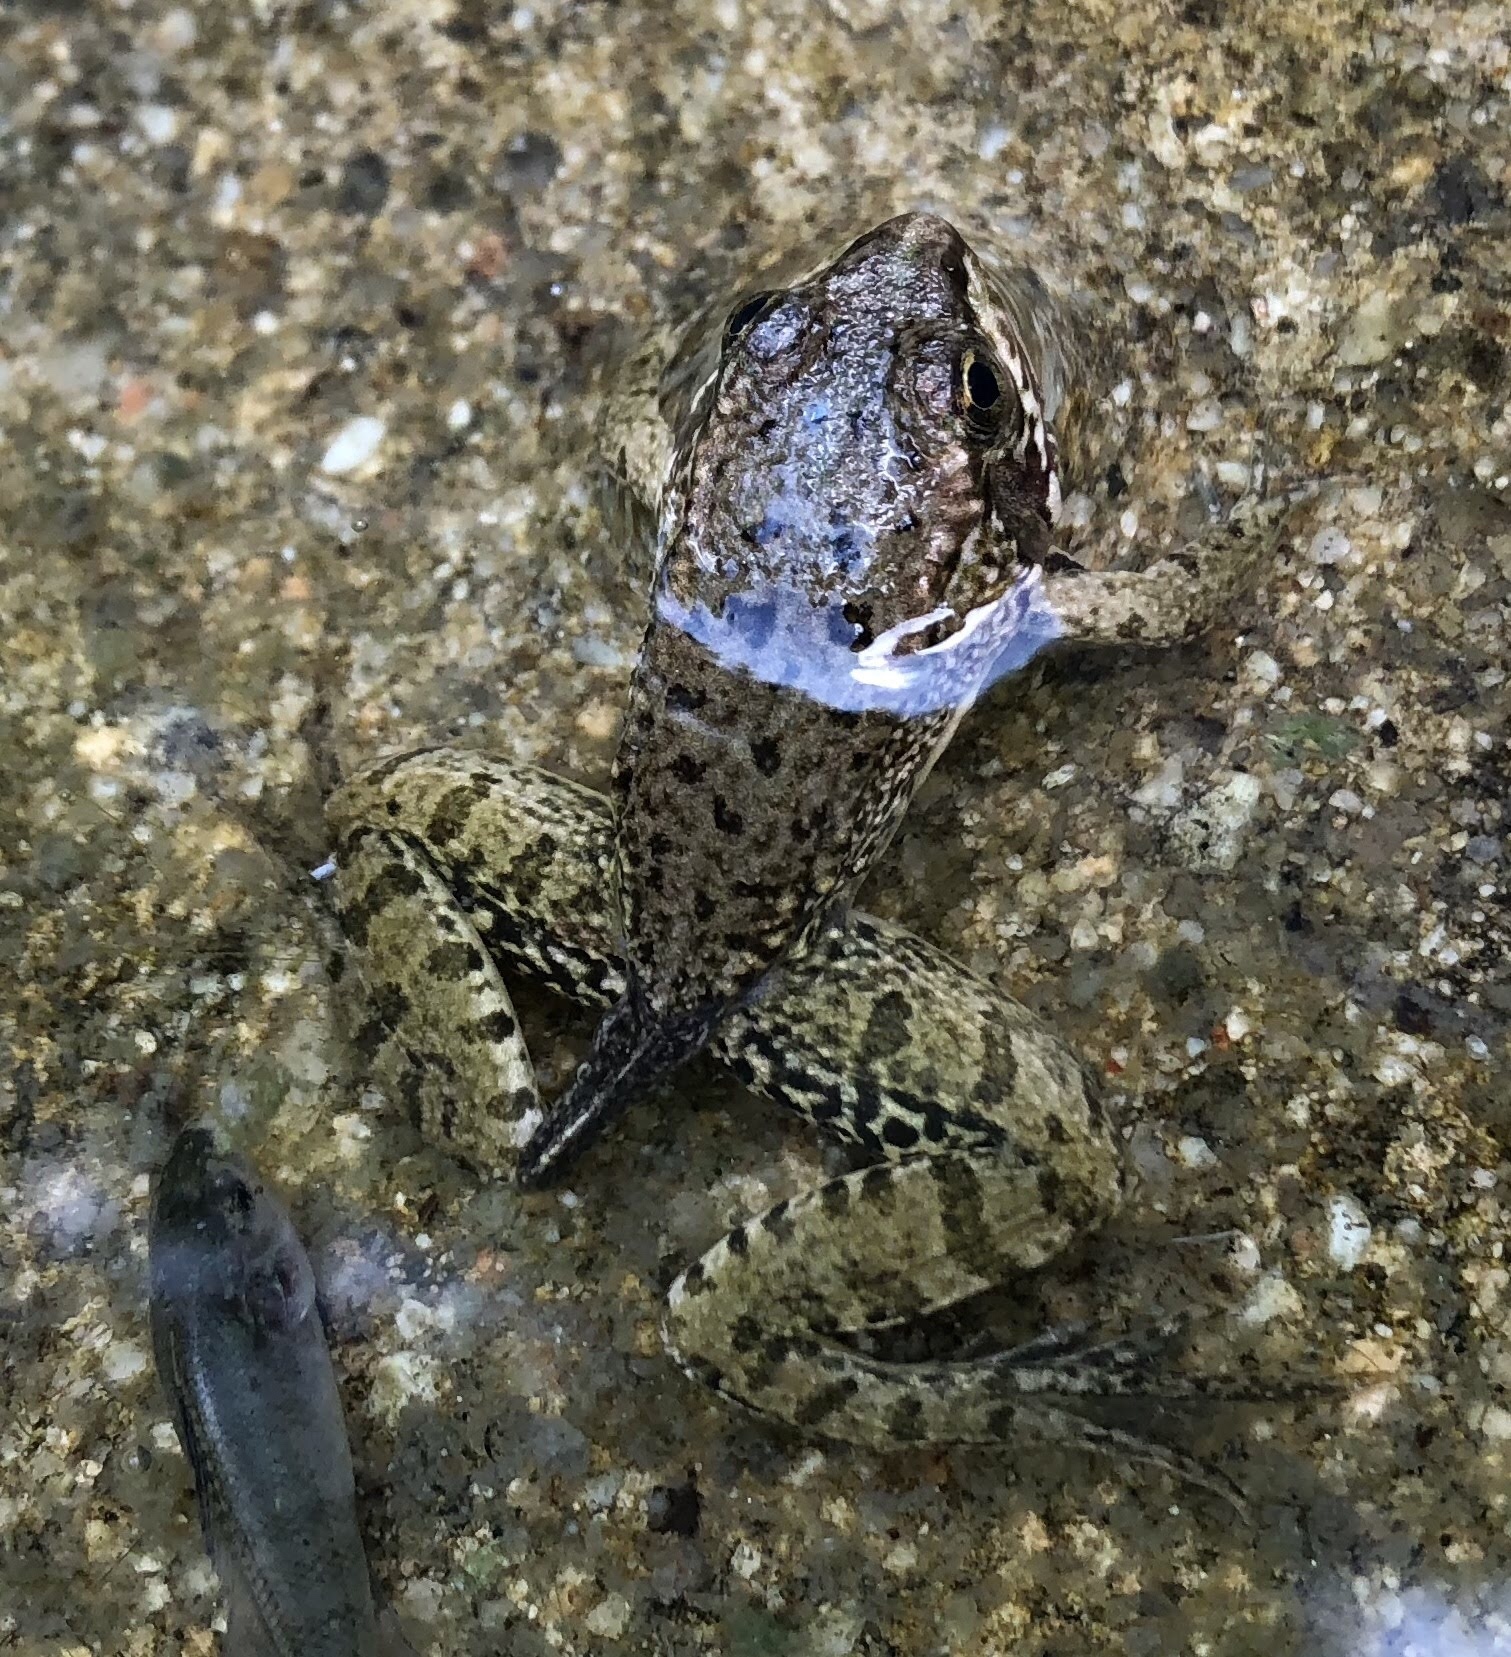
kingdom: Animalia
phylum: Chordata
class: Amphibia
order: Anura
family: Ranidae
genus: Pelophylax
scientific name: Pelophylax perezi
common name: Perez's frog
